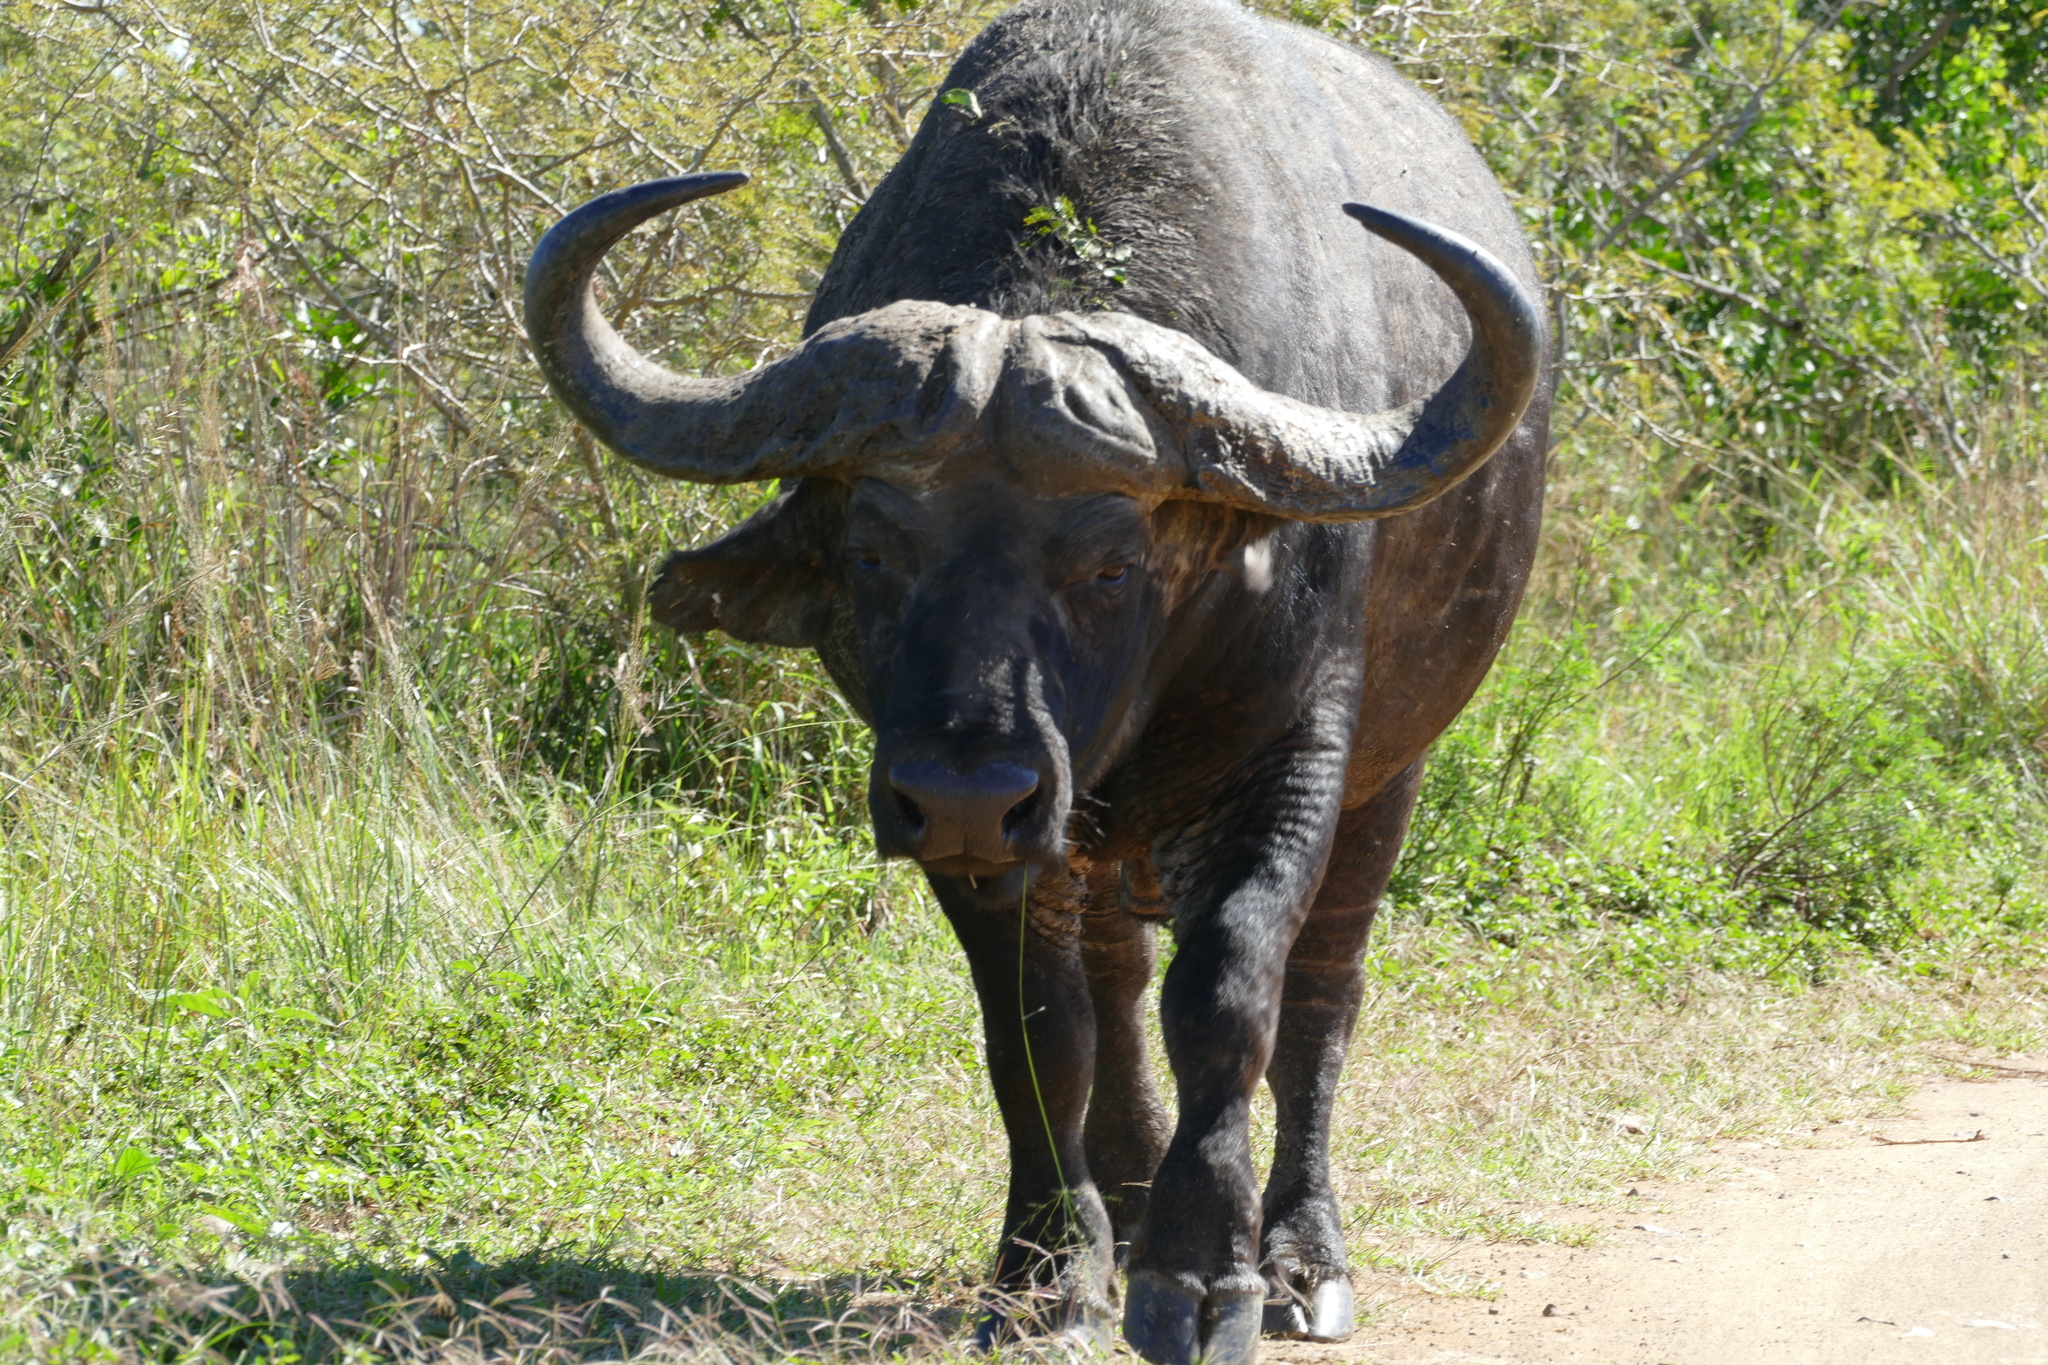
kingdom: Animalia
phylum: Chordata
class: Mammalia
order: Artiodactyla
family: Bovidae
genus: Syncerus
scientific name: Syncerus caffer
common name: African buffalo
